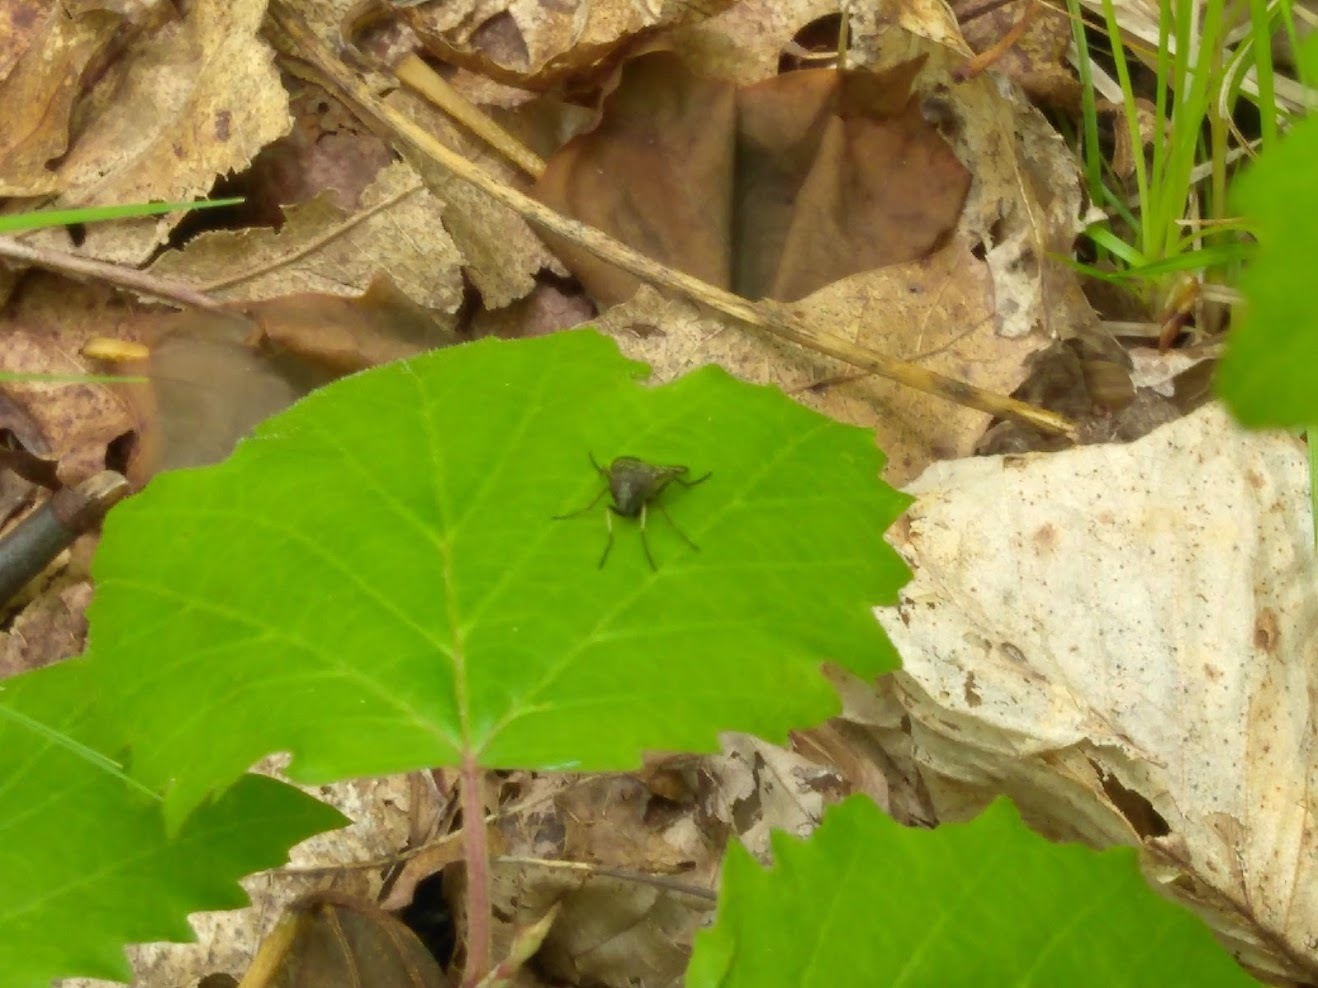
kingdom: Animalia
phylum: Arthropoda
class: Insecta
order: Diptera
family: Rhagionidae
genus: Rhagio
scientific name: Rhagio mystaceus
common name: Common snipe fly
